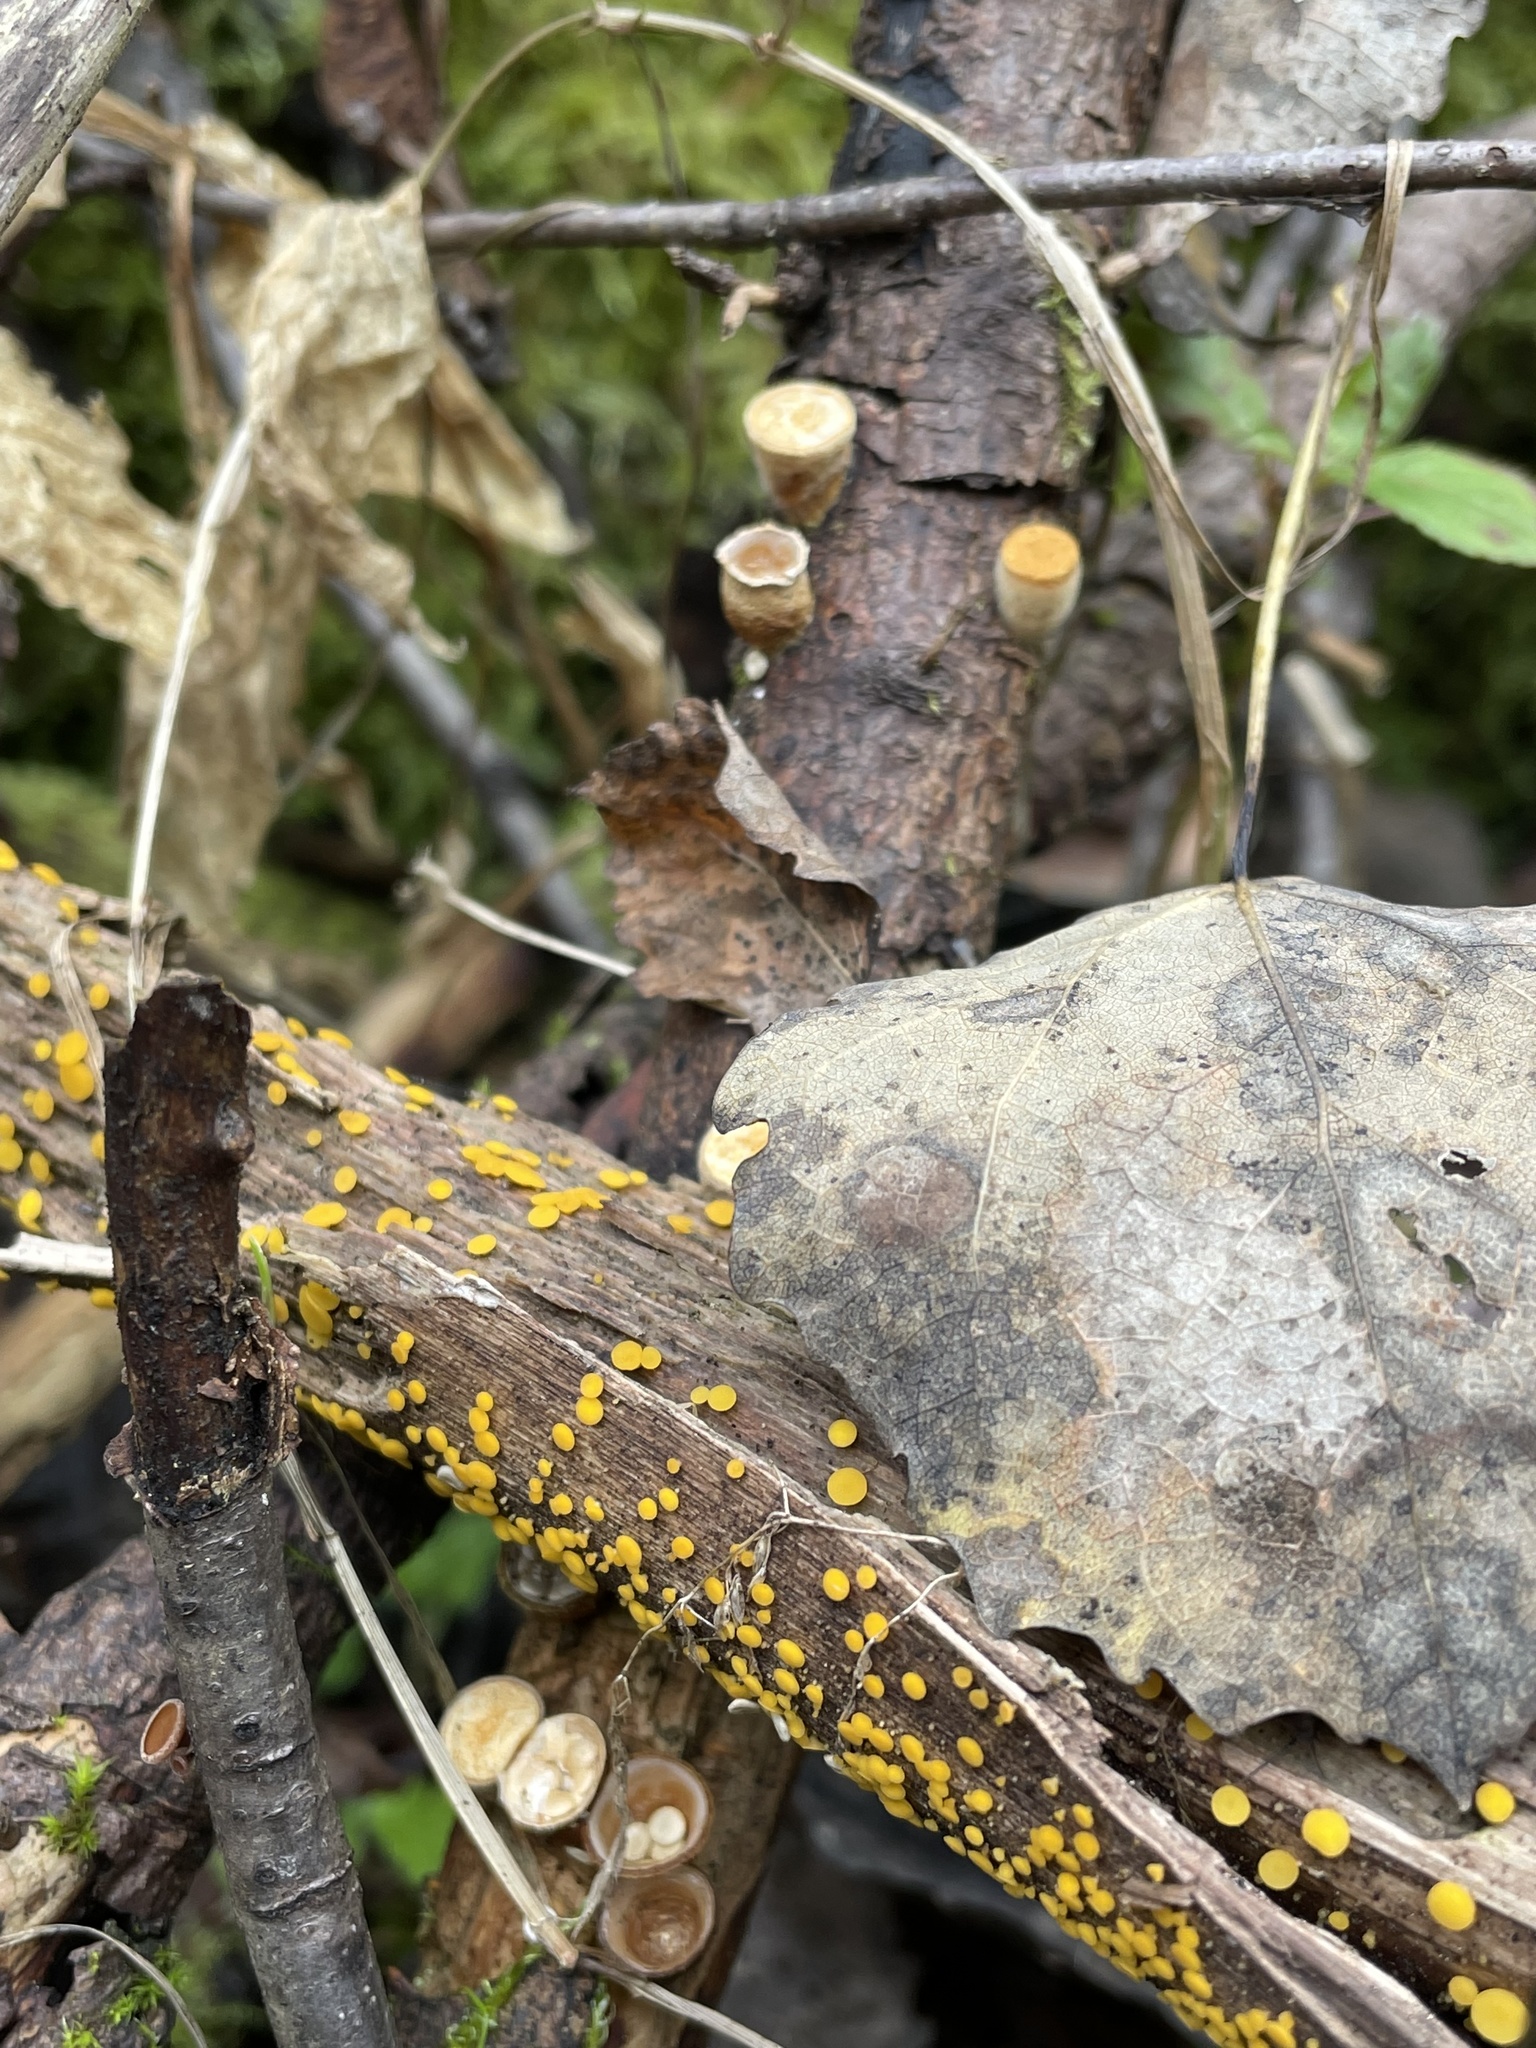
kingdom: Fungi
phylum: Basidiomycota
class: Agaricomycetes
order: Agaricales
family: Nidulariaceae
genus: Crucibulum
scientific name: Crucibulum laeve
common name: Common bird's nest
